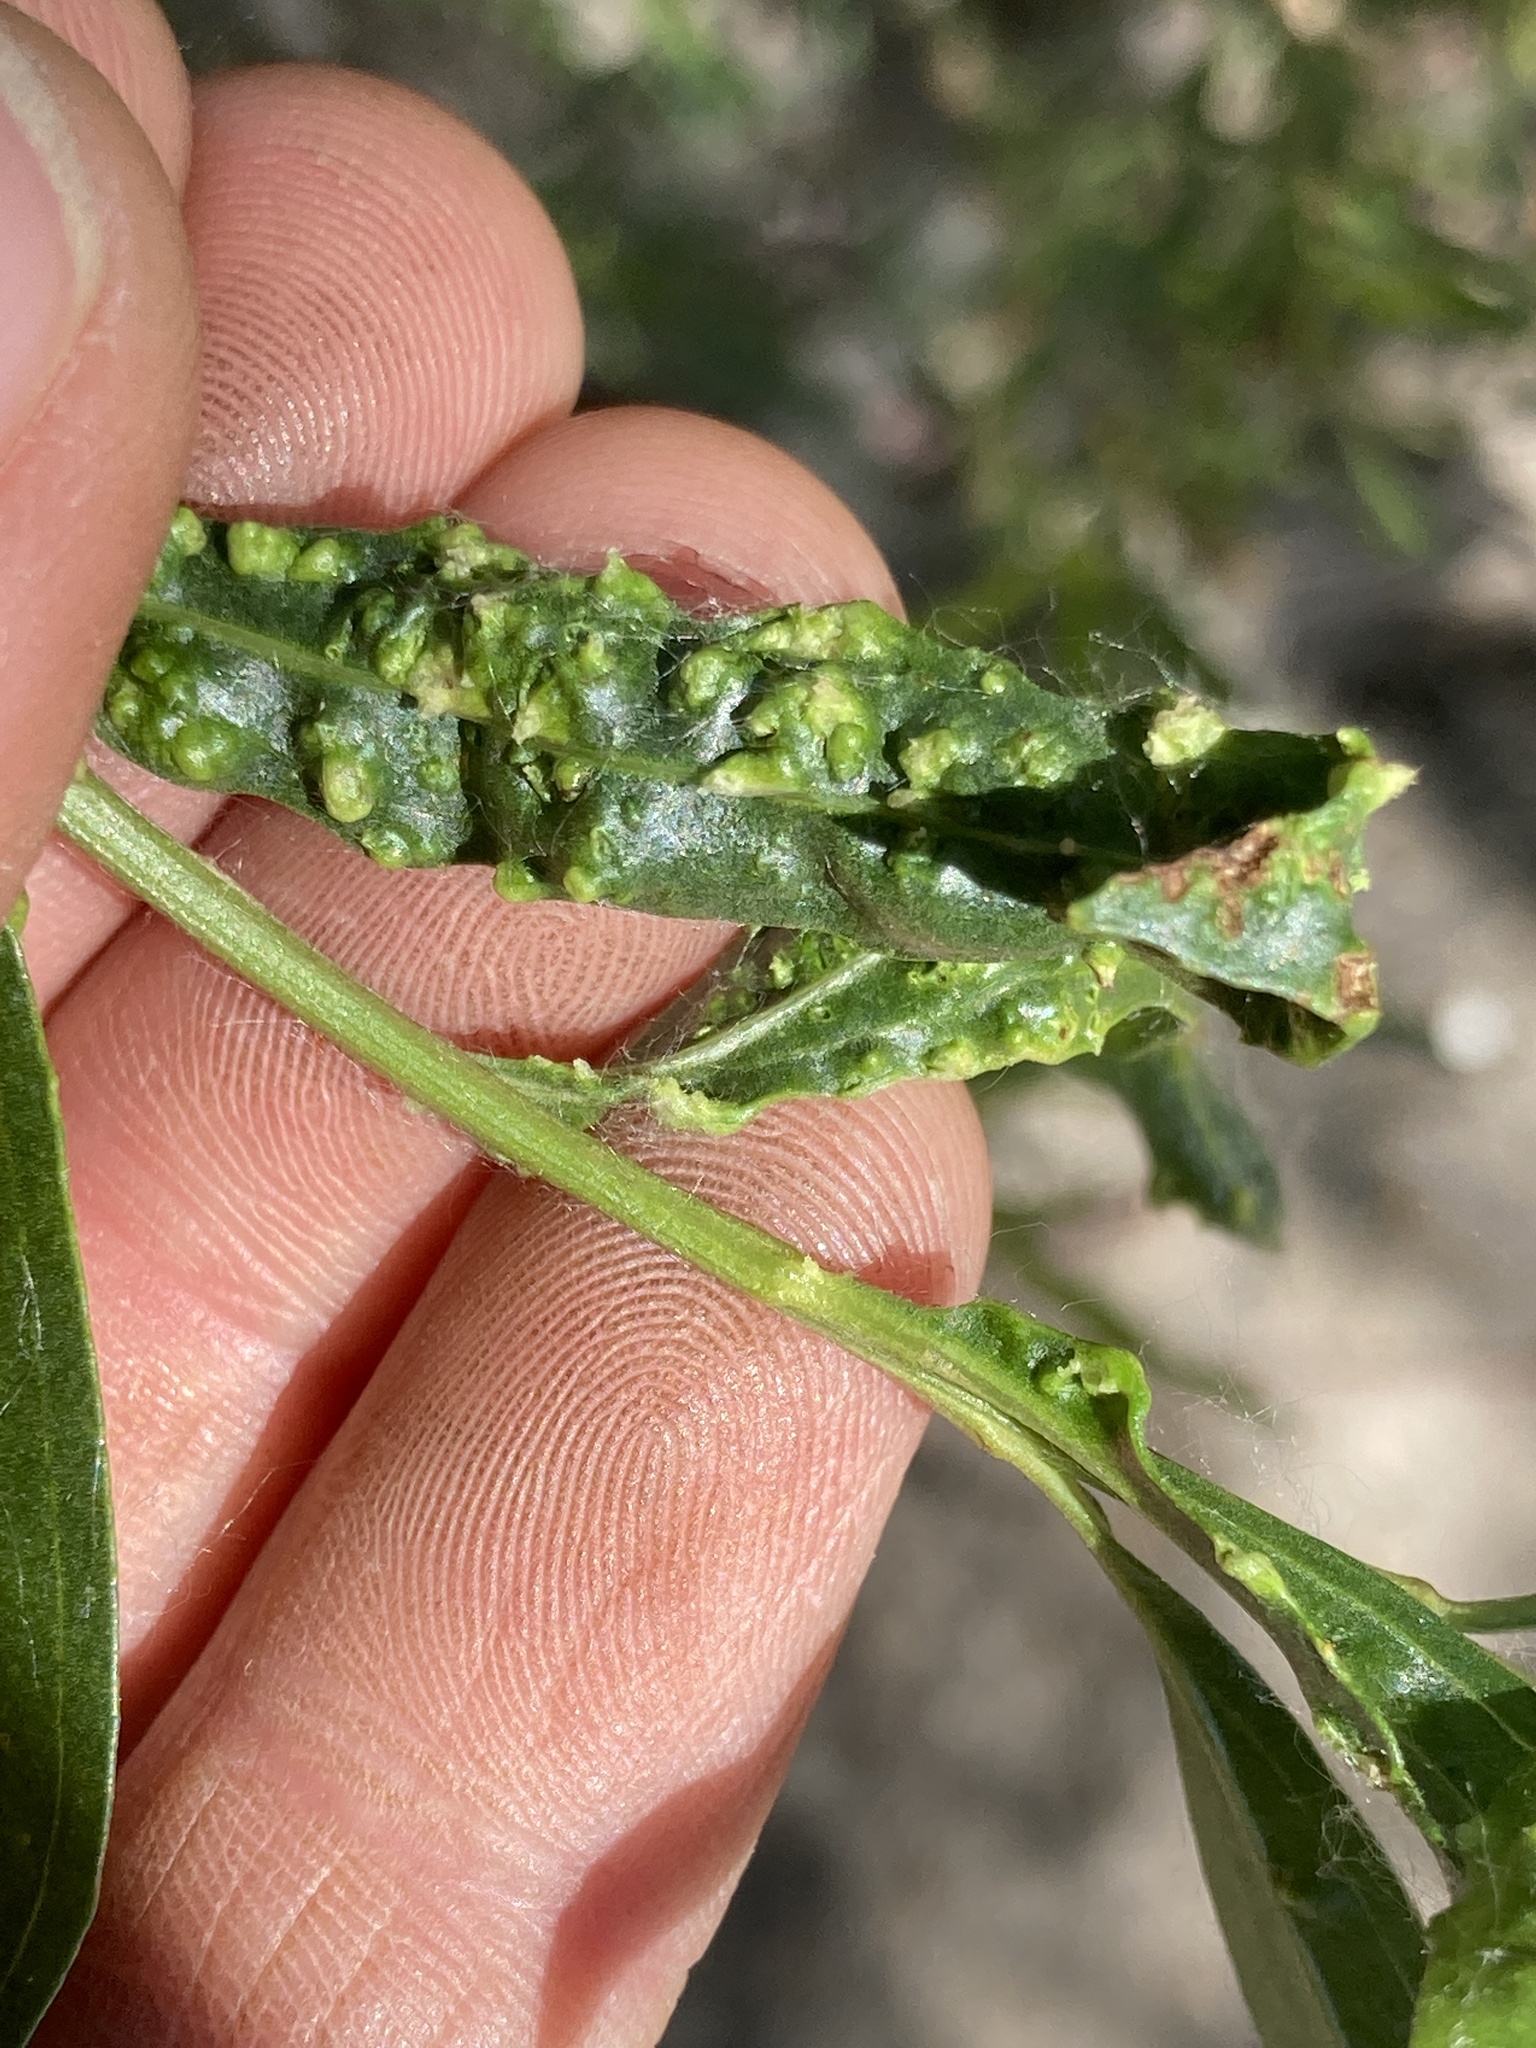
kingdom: Animalia
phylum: Arthropoda
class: Arachnida
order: Trombidiformes
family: Eriophyidae
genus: Aceria
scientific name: Aceria
